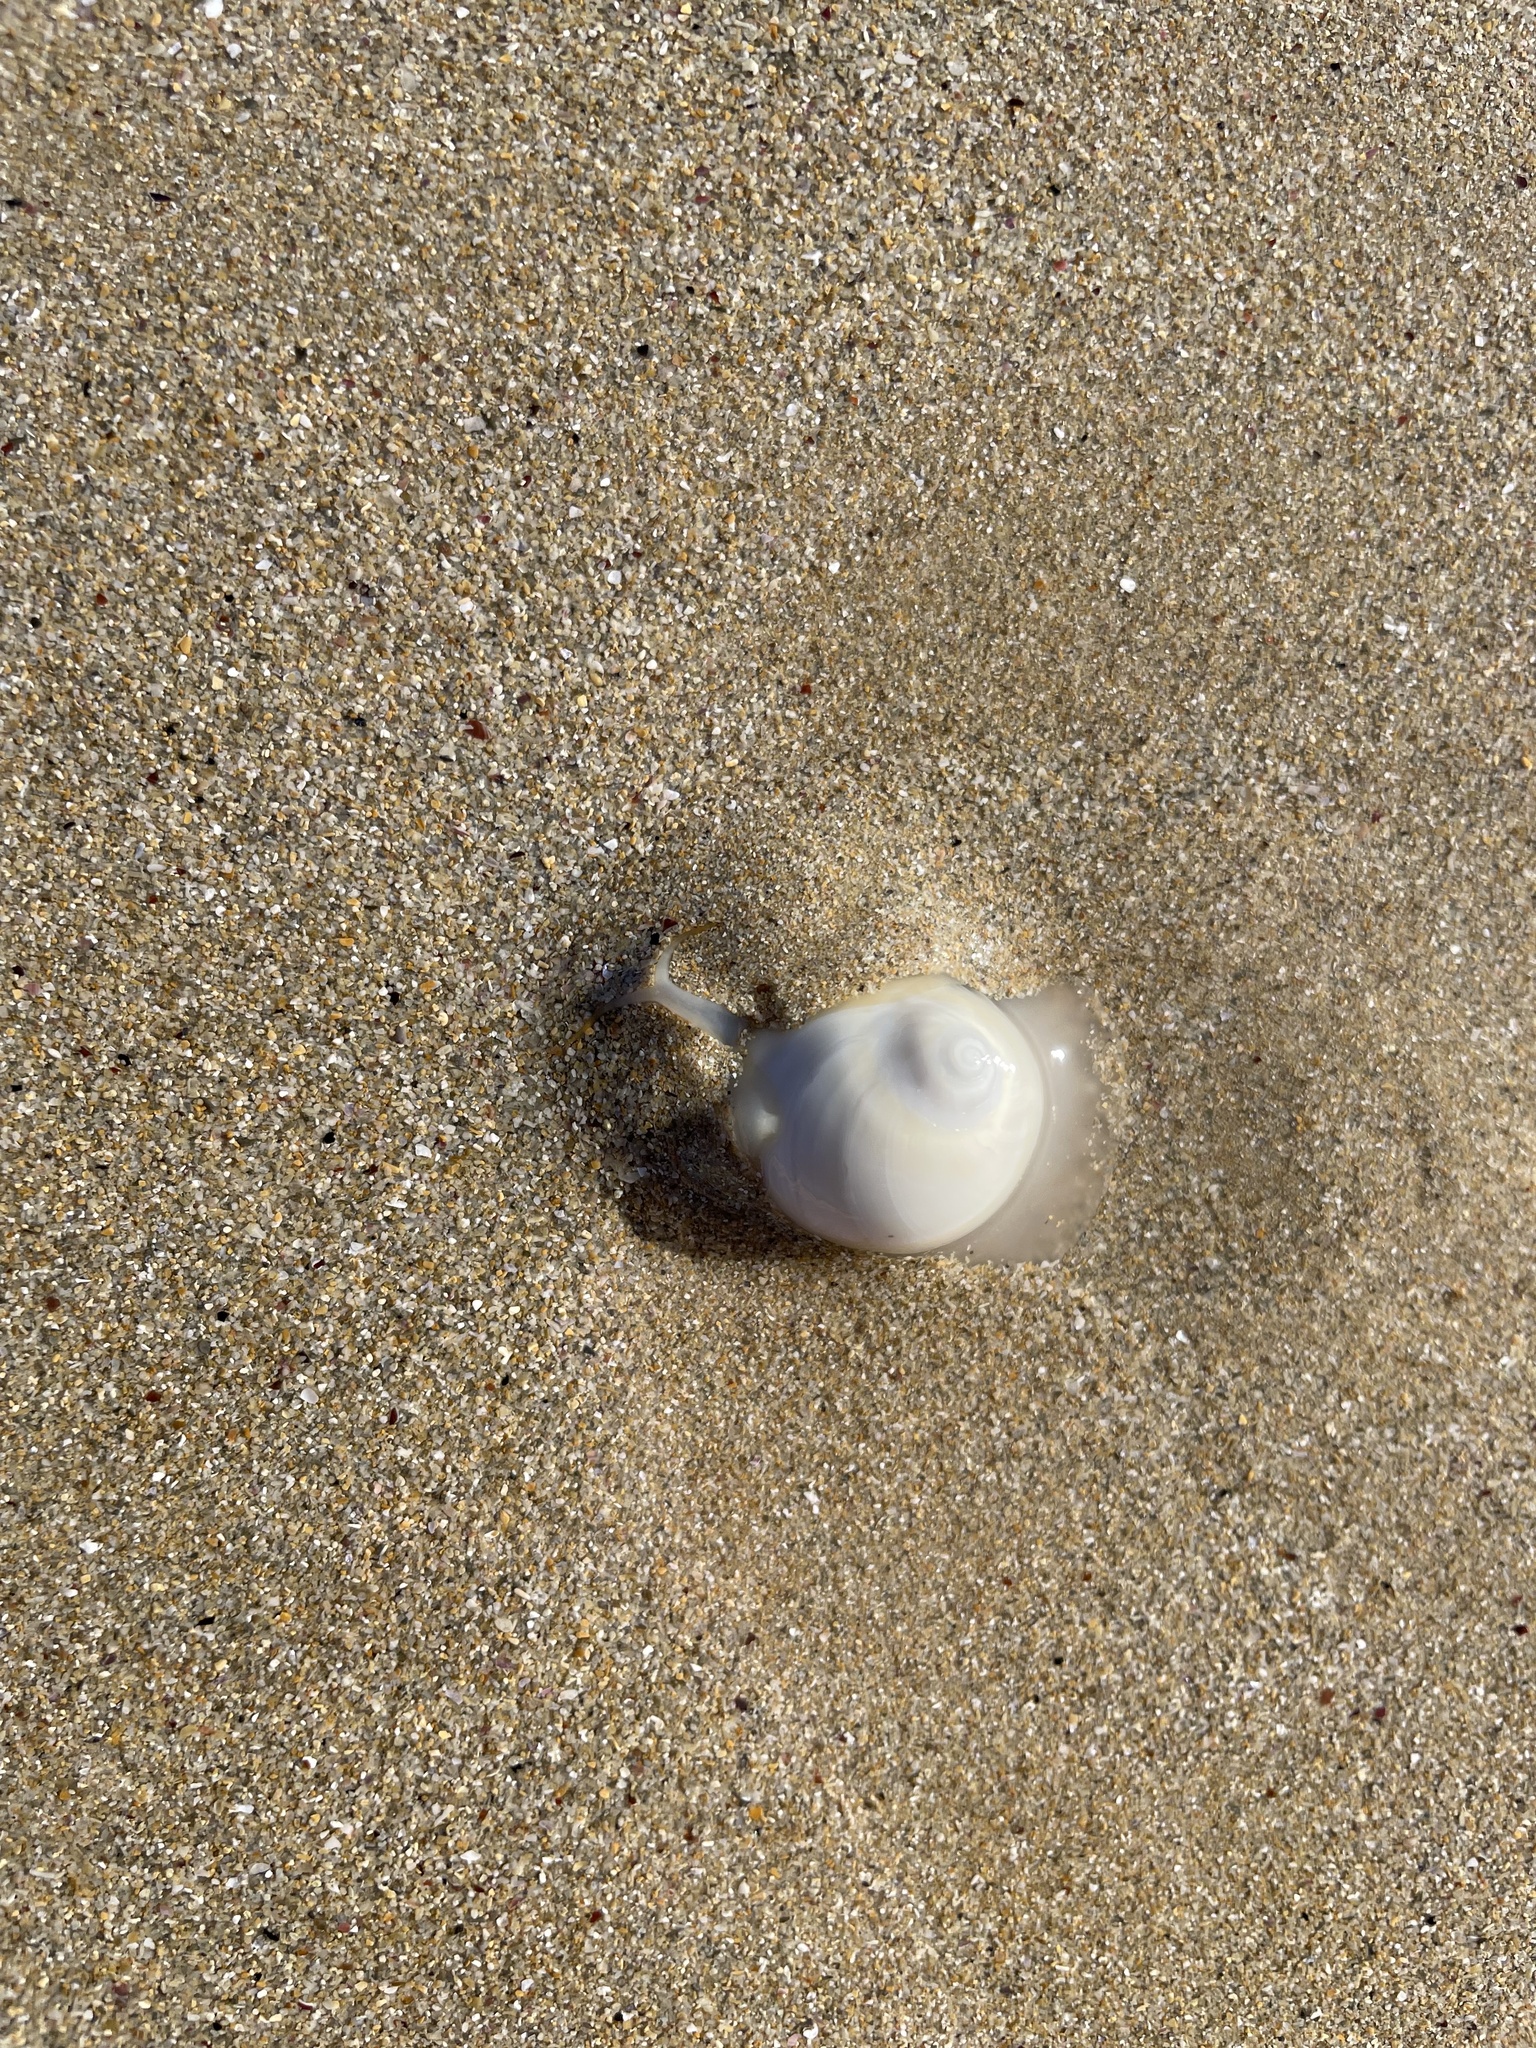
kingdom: Animalia
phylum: Mollusca
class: Gastropoda
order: Littorinimorpha
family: Naticidae
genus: Conuber
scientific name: Conuber incei
